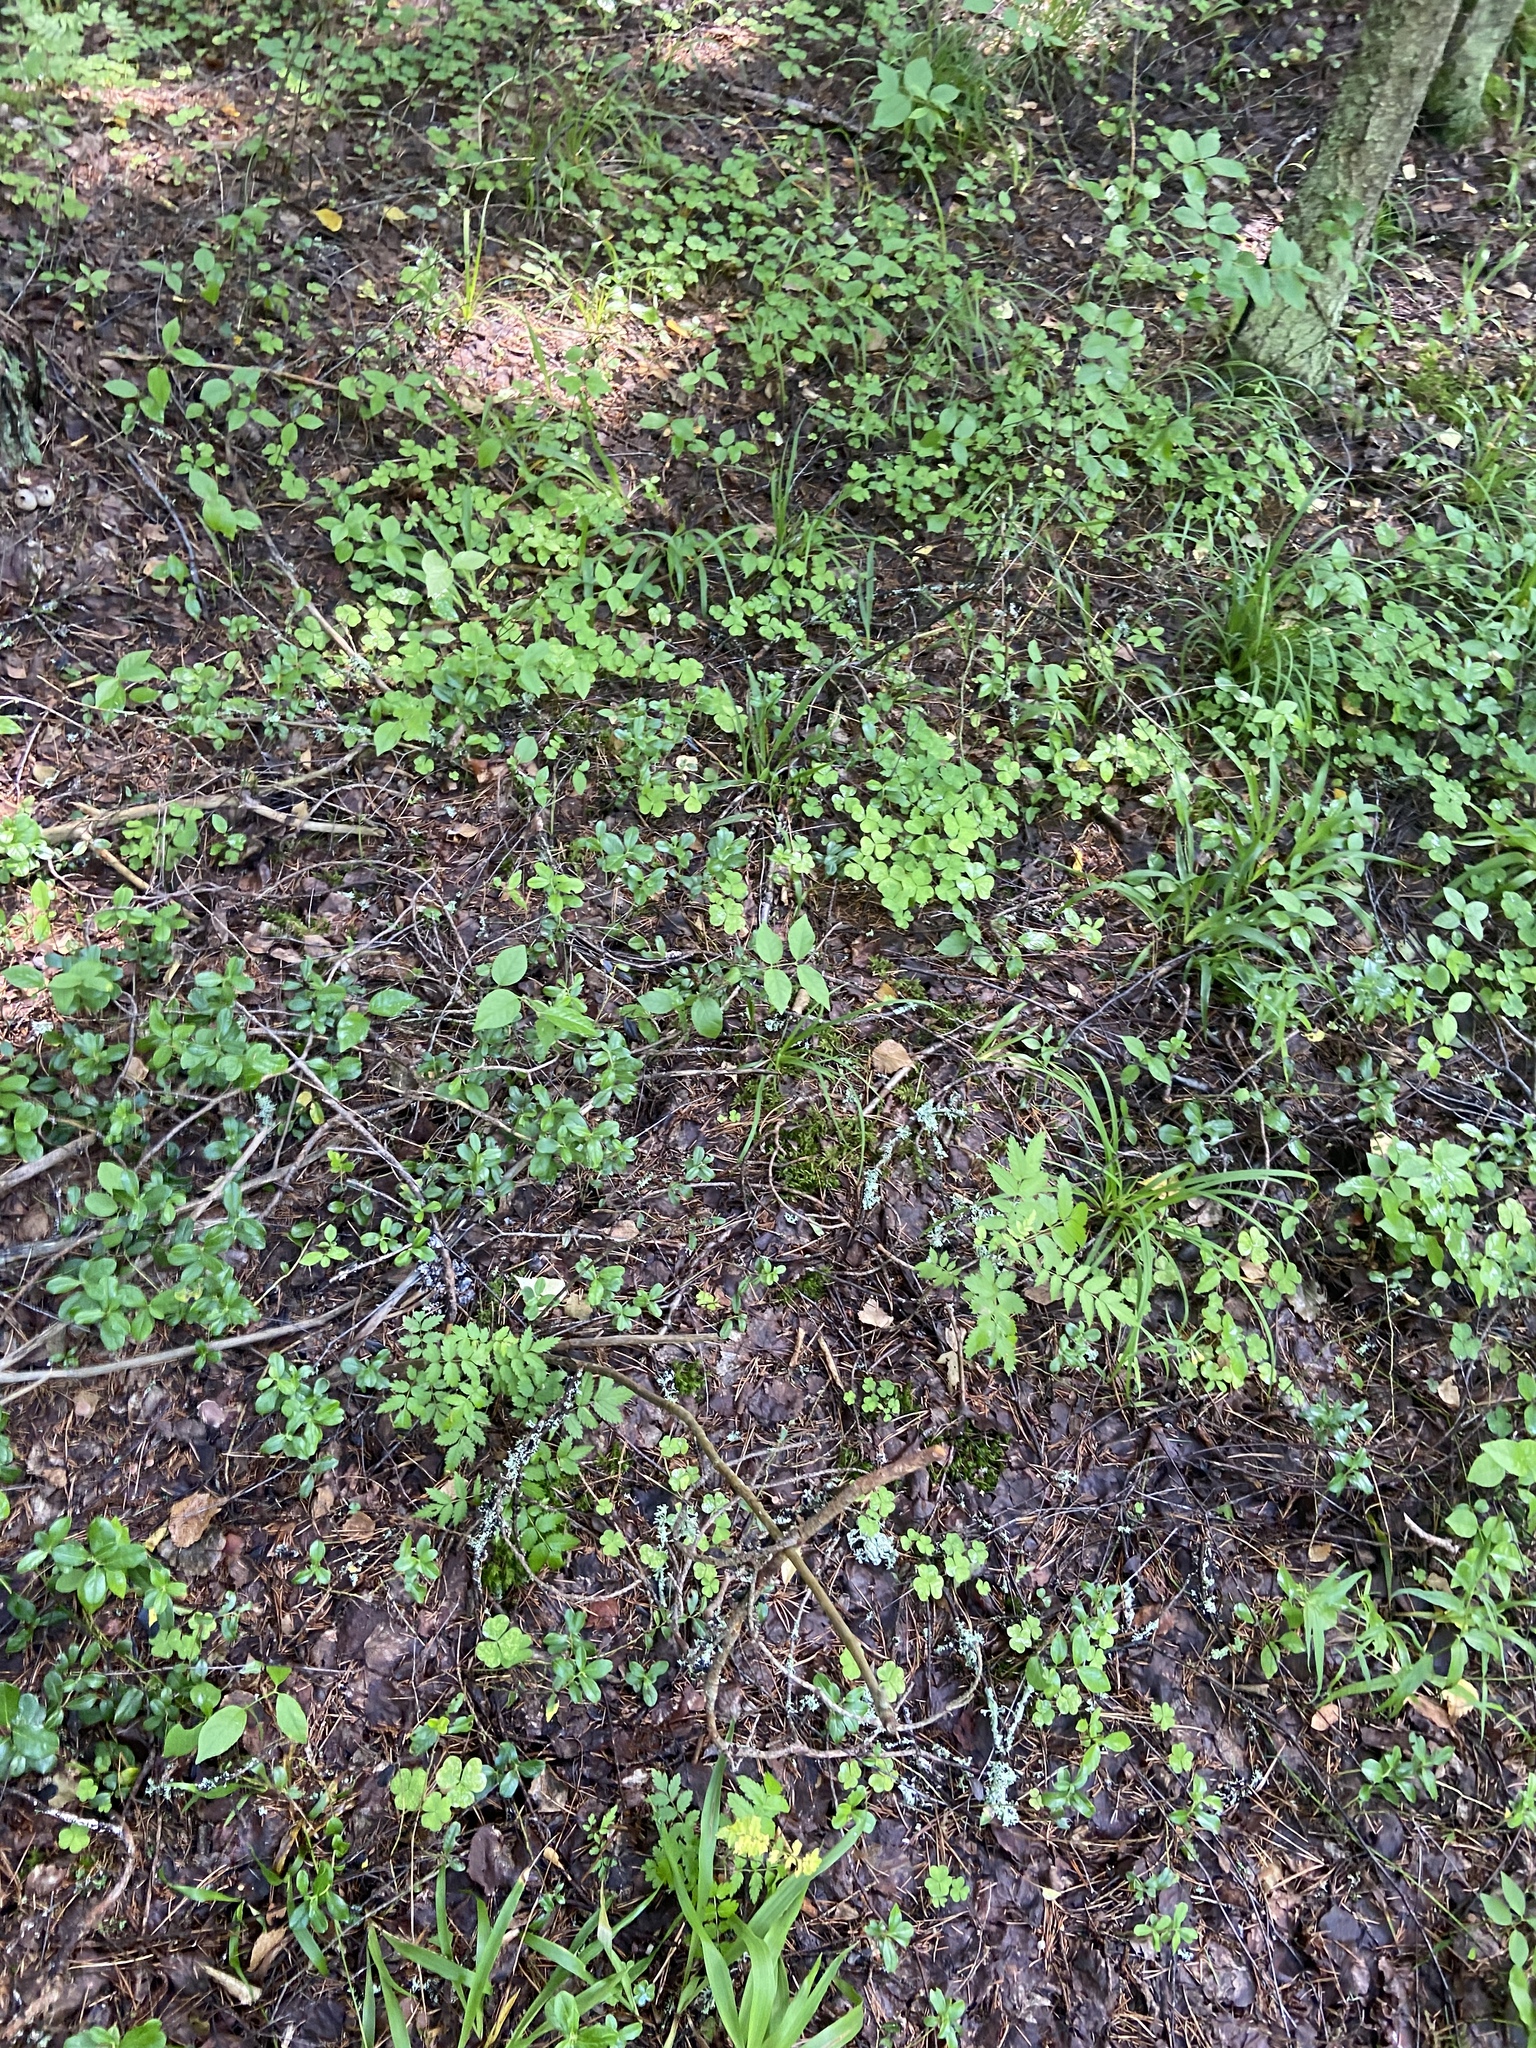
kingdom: Plantae
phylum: Tracheophyta
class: Magnoliopsida
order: Oxalidales
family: Oxalidaceae
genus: Oxalis
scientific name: Oxalis acetosella
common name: Wood-sorrel
